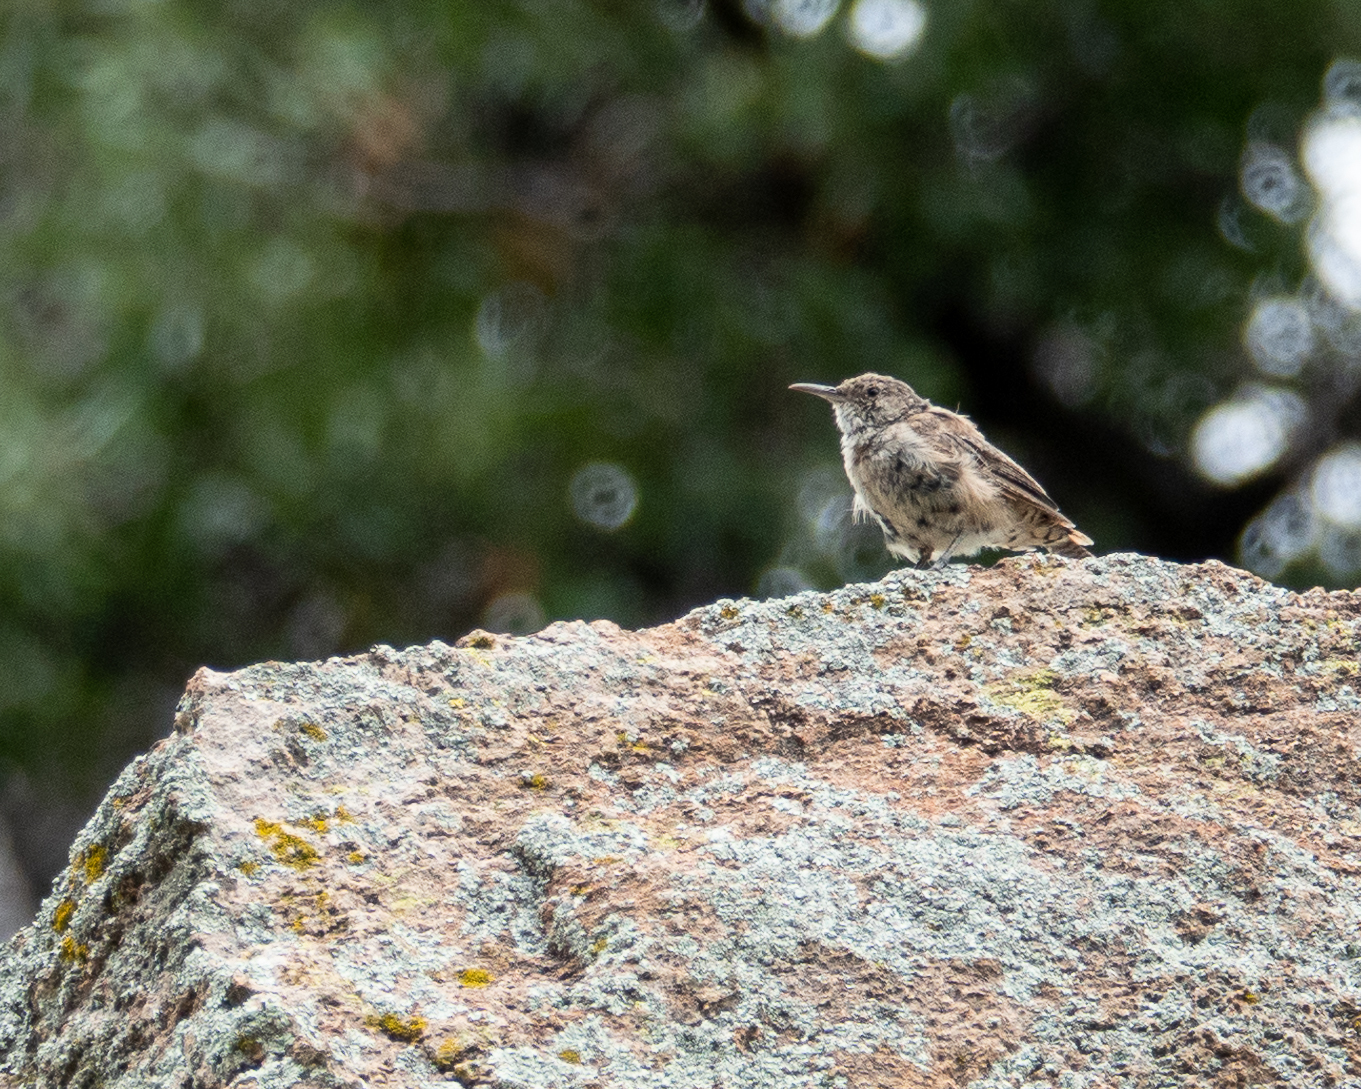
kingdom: Animalia
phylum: Chordata
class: Aves
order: Passeriformes
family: Troglodytidae
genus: Catherpes
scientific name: Catherpes mexicanus
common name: Canyon wren
